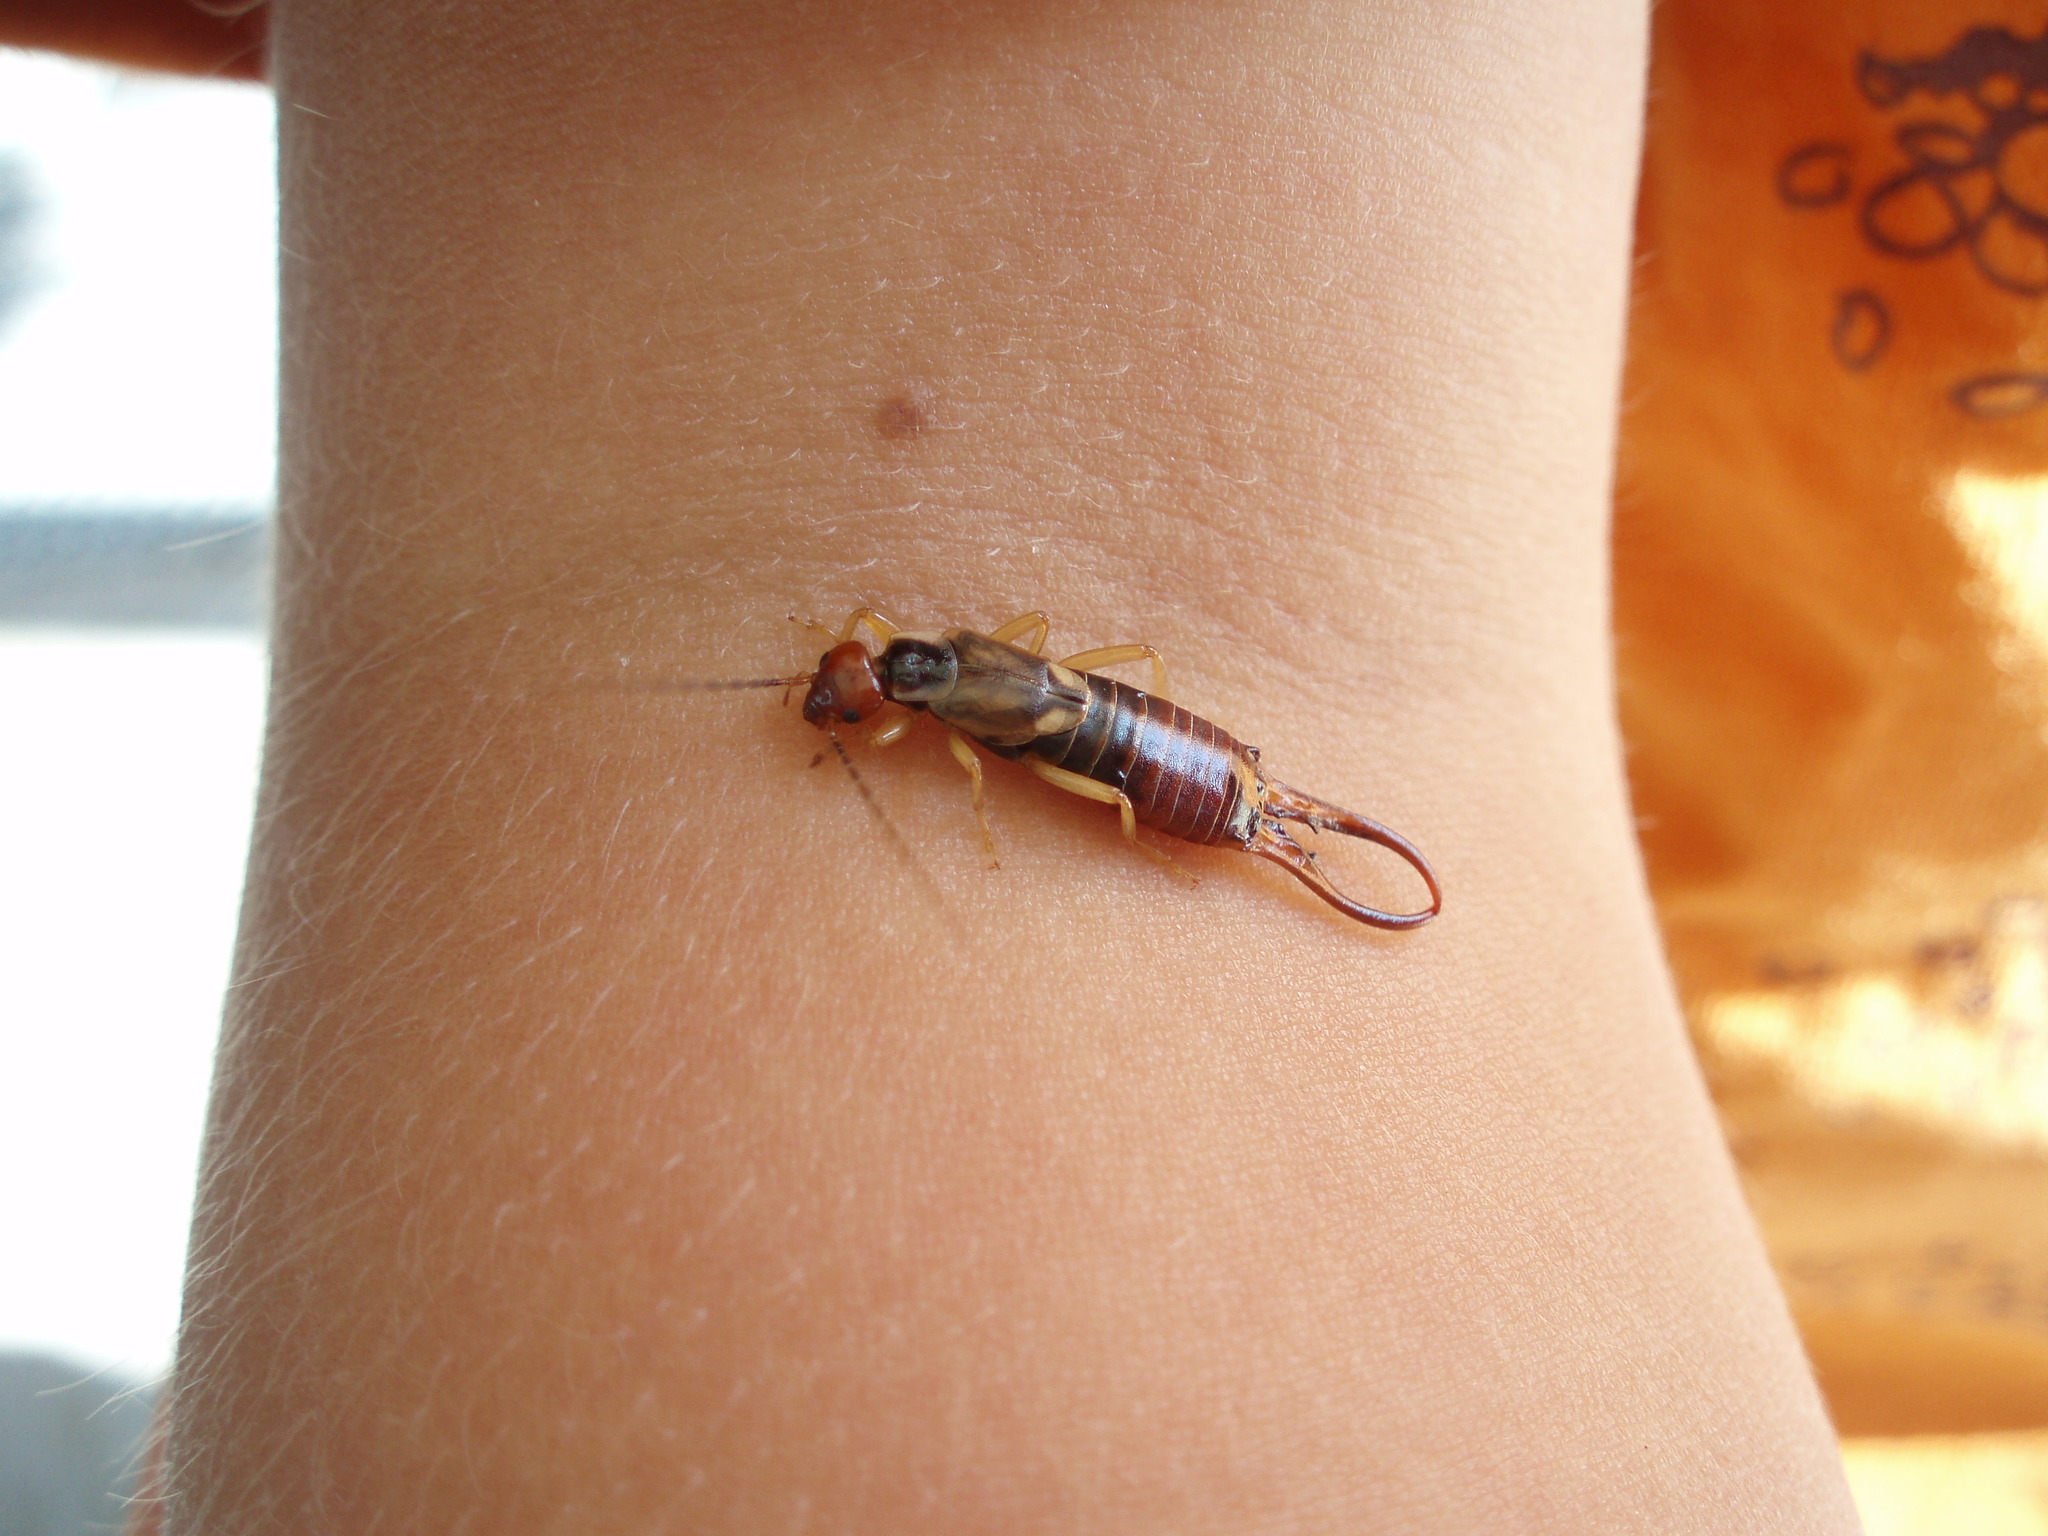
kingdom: Animalia
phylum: Arthropoda
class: Insecta
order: Dermaptera
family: Forficulidae
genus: Forficula
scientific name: Forficula
